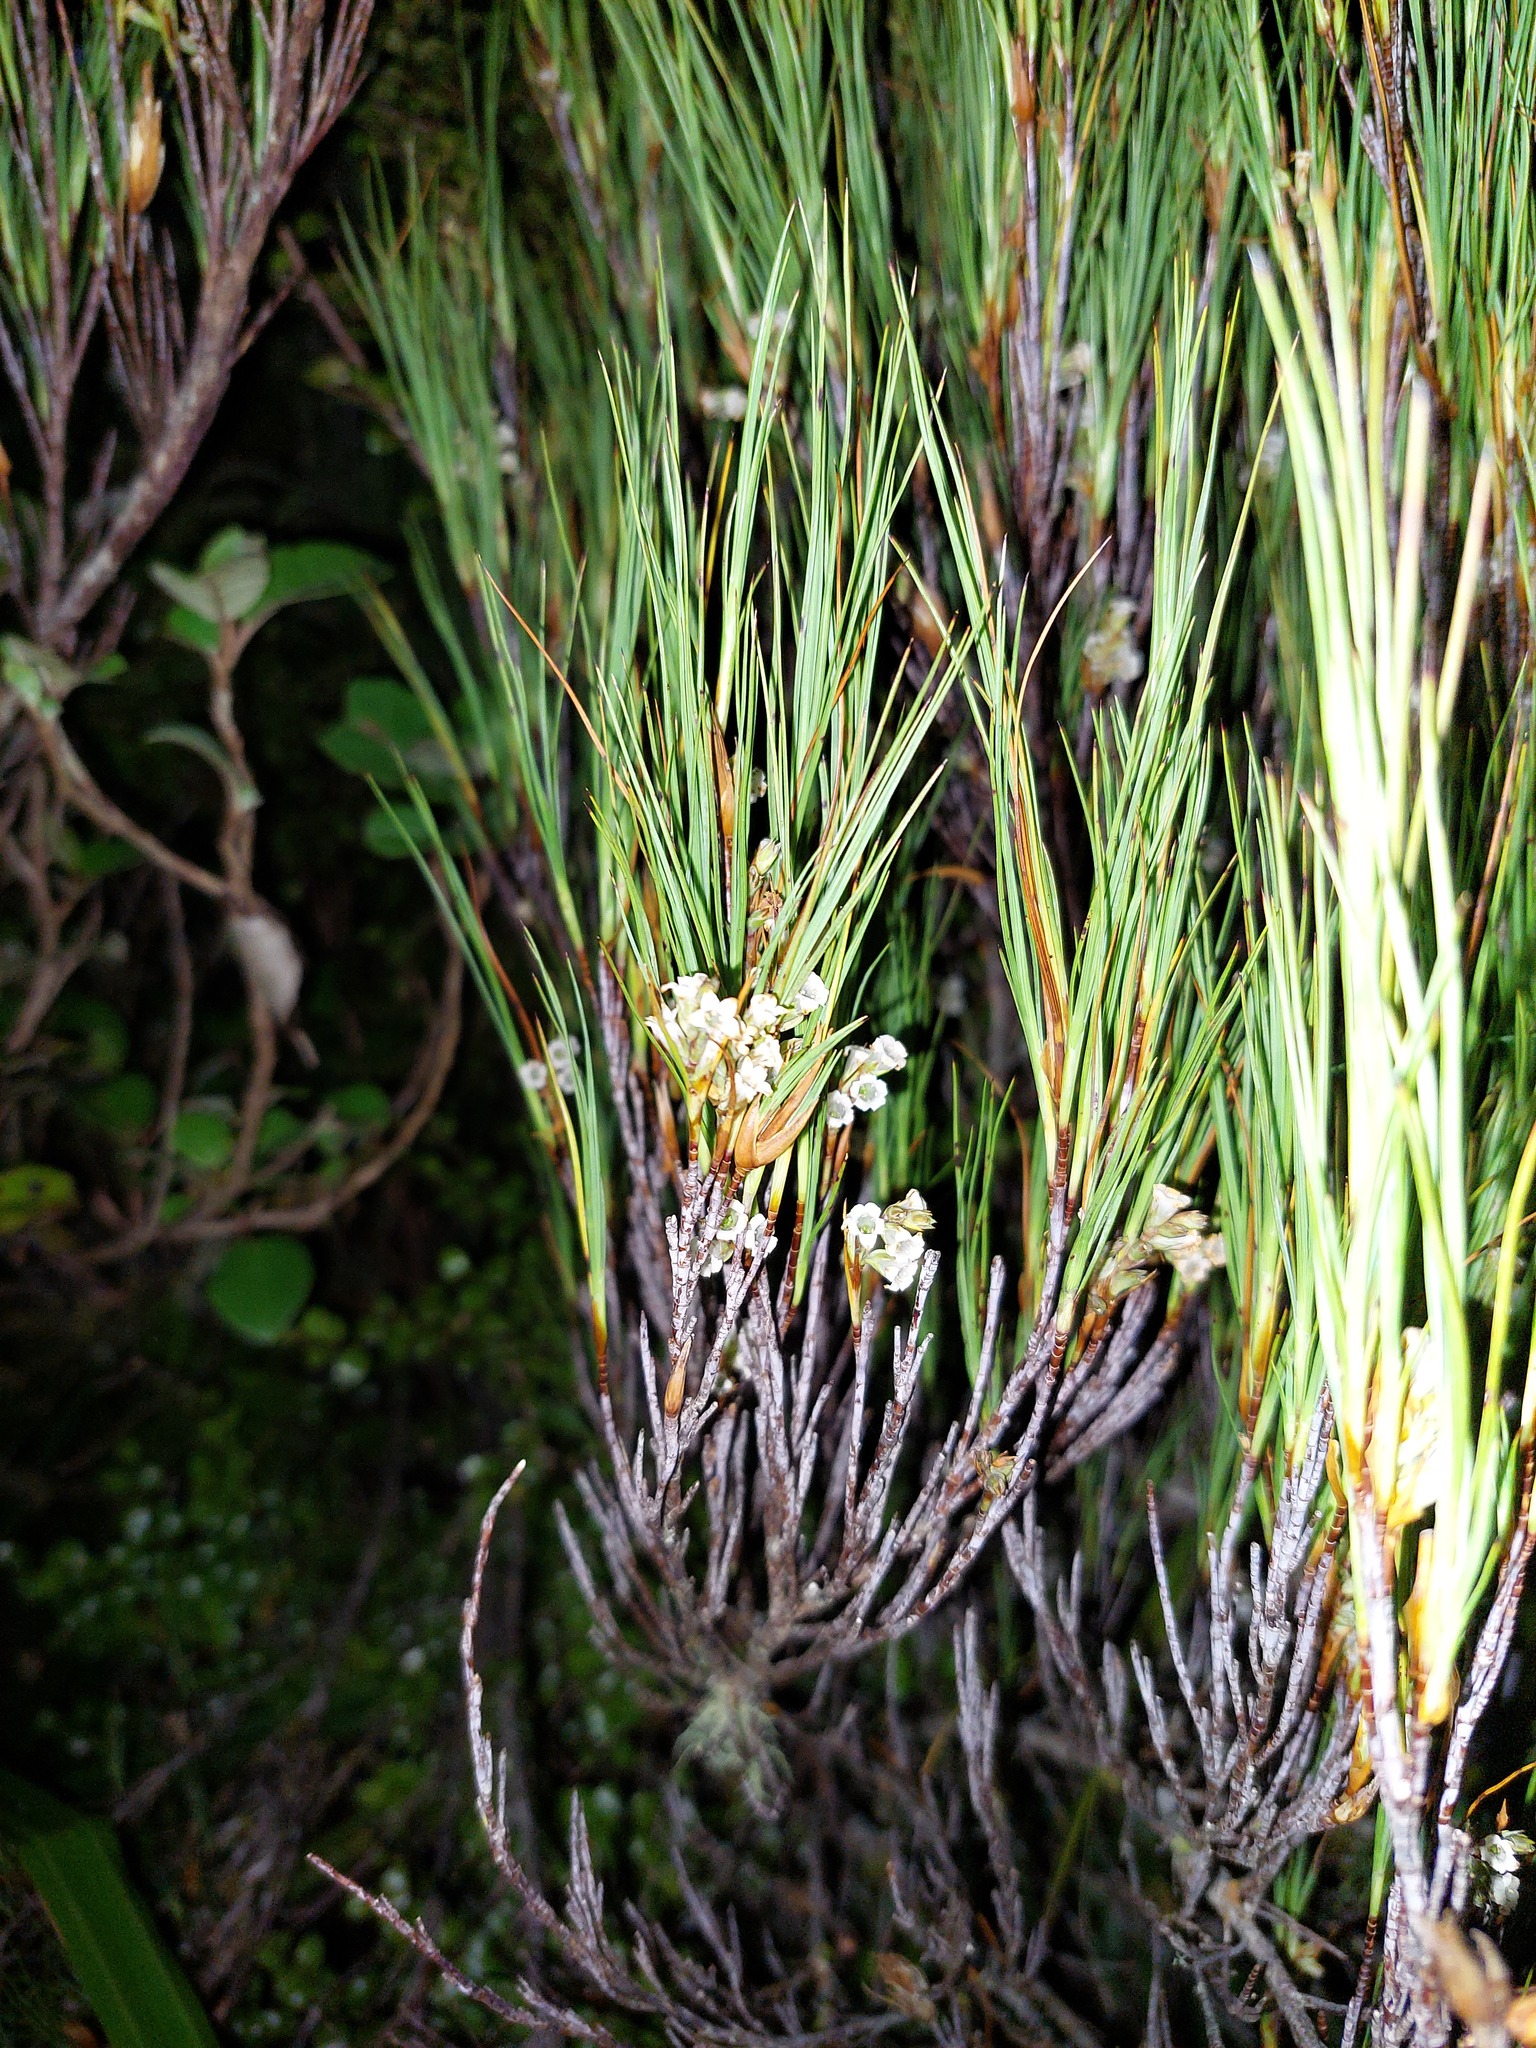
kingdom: Plantae
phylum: Tracheophyta
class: Magnoliopsida
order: Ericales
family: Ericaceae
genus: Dracophyllum
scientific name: Dracophyllum filifolium
